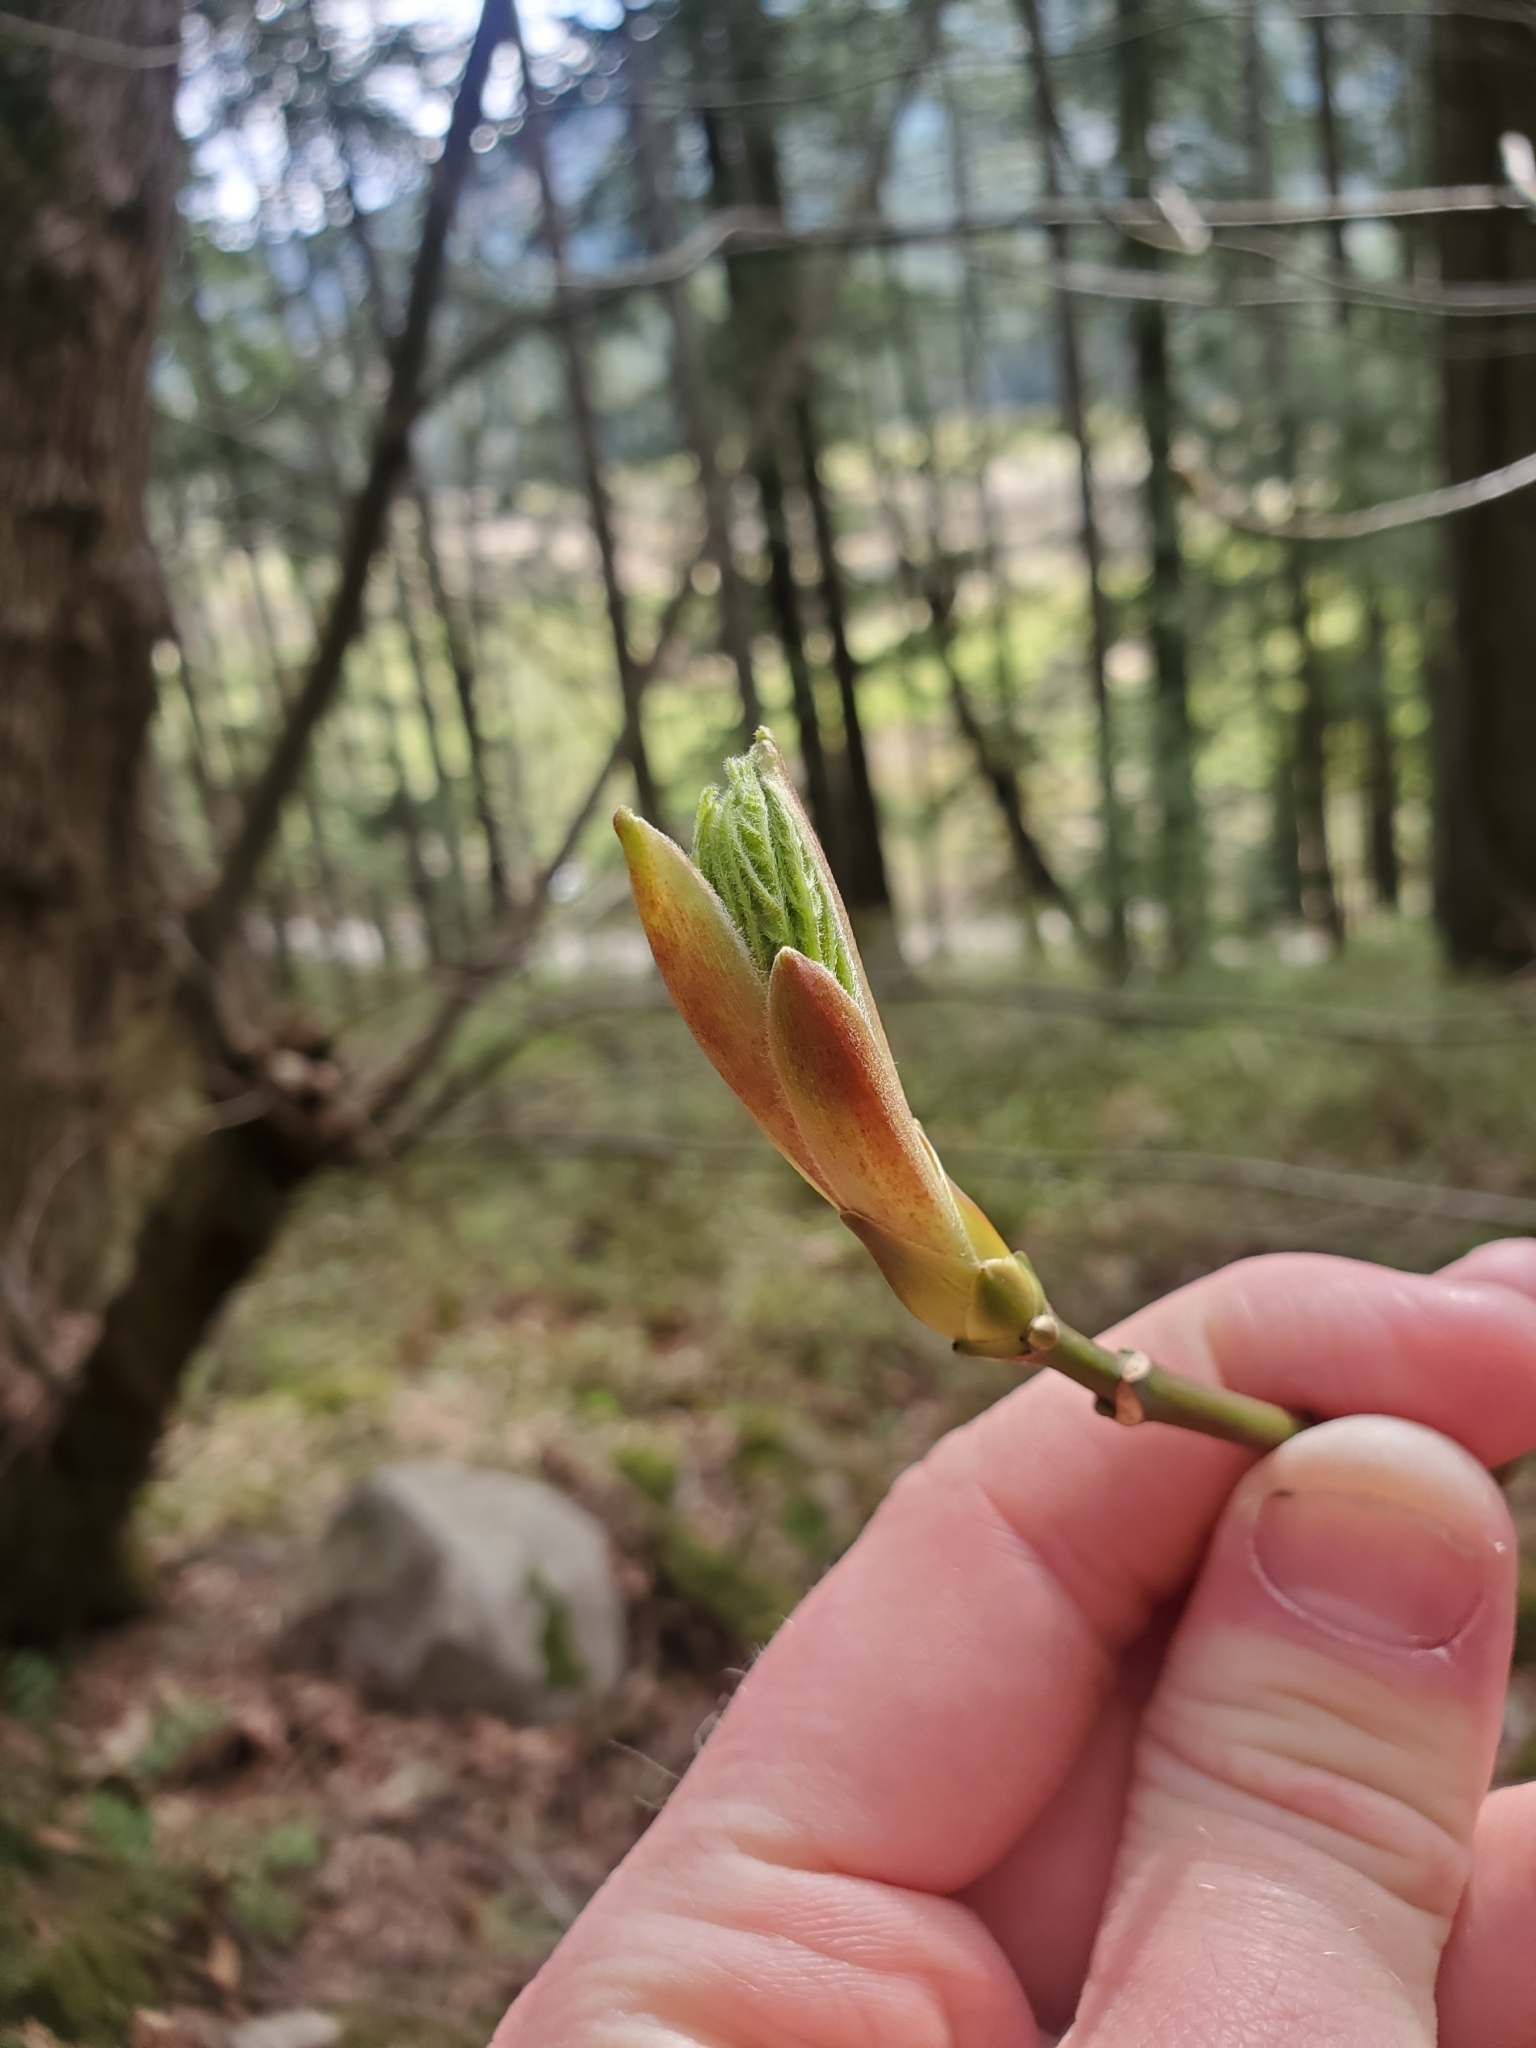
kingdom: Plantae
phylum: Tracheophyta
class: Magnoliopsida
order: Sapindales
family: Sapindaceae
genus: Acer
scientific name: Acer macrophyllum
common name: Oregon maple
